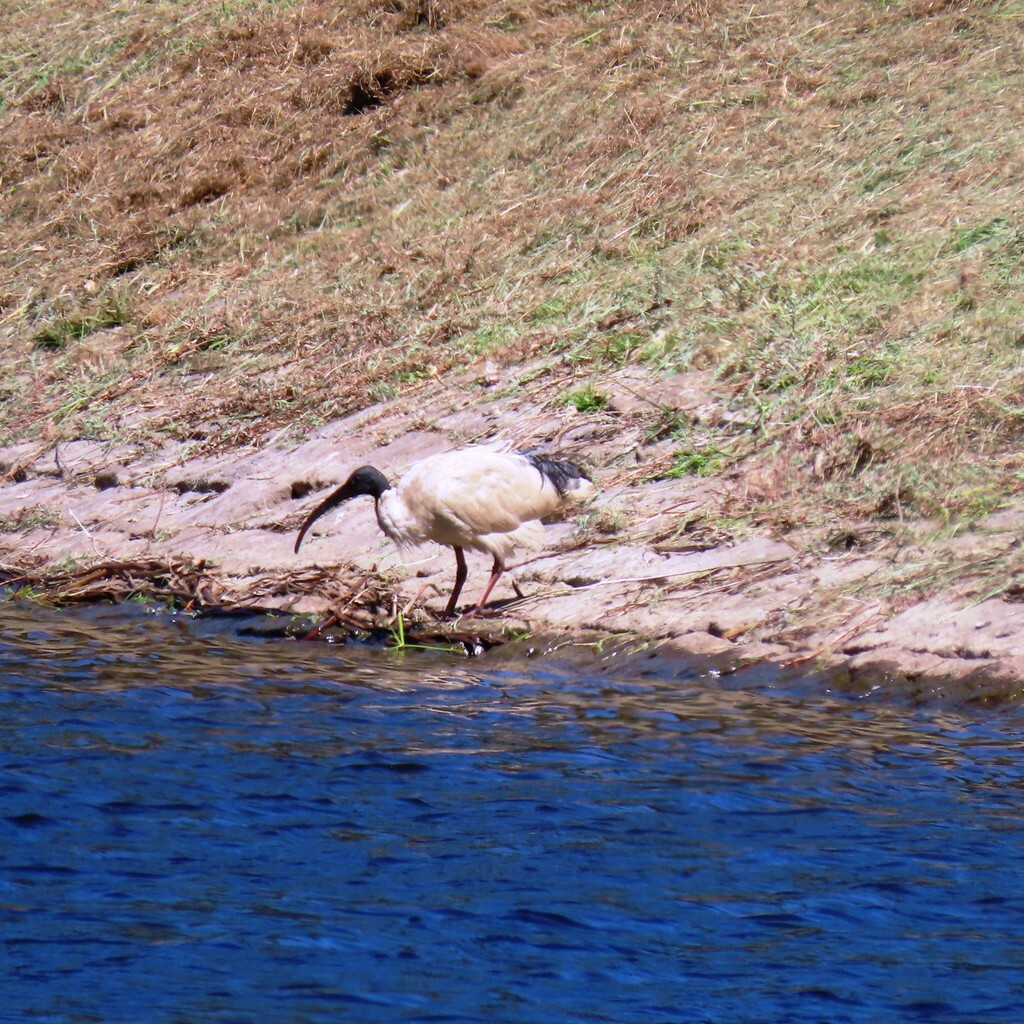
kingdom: Animalia
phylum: Chordata
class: Aves
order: Pelecaniformes
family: Threskiornithidae
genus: Threskiornis
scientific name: Threskiornis molucca
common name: Australian white ibis
